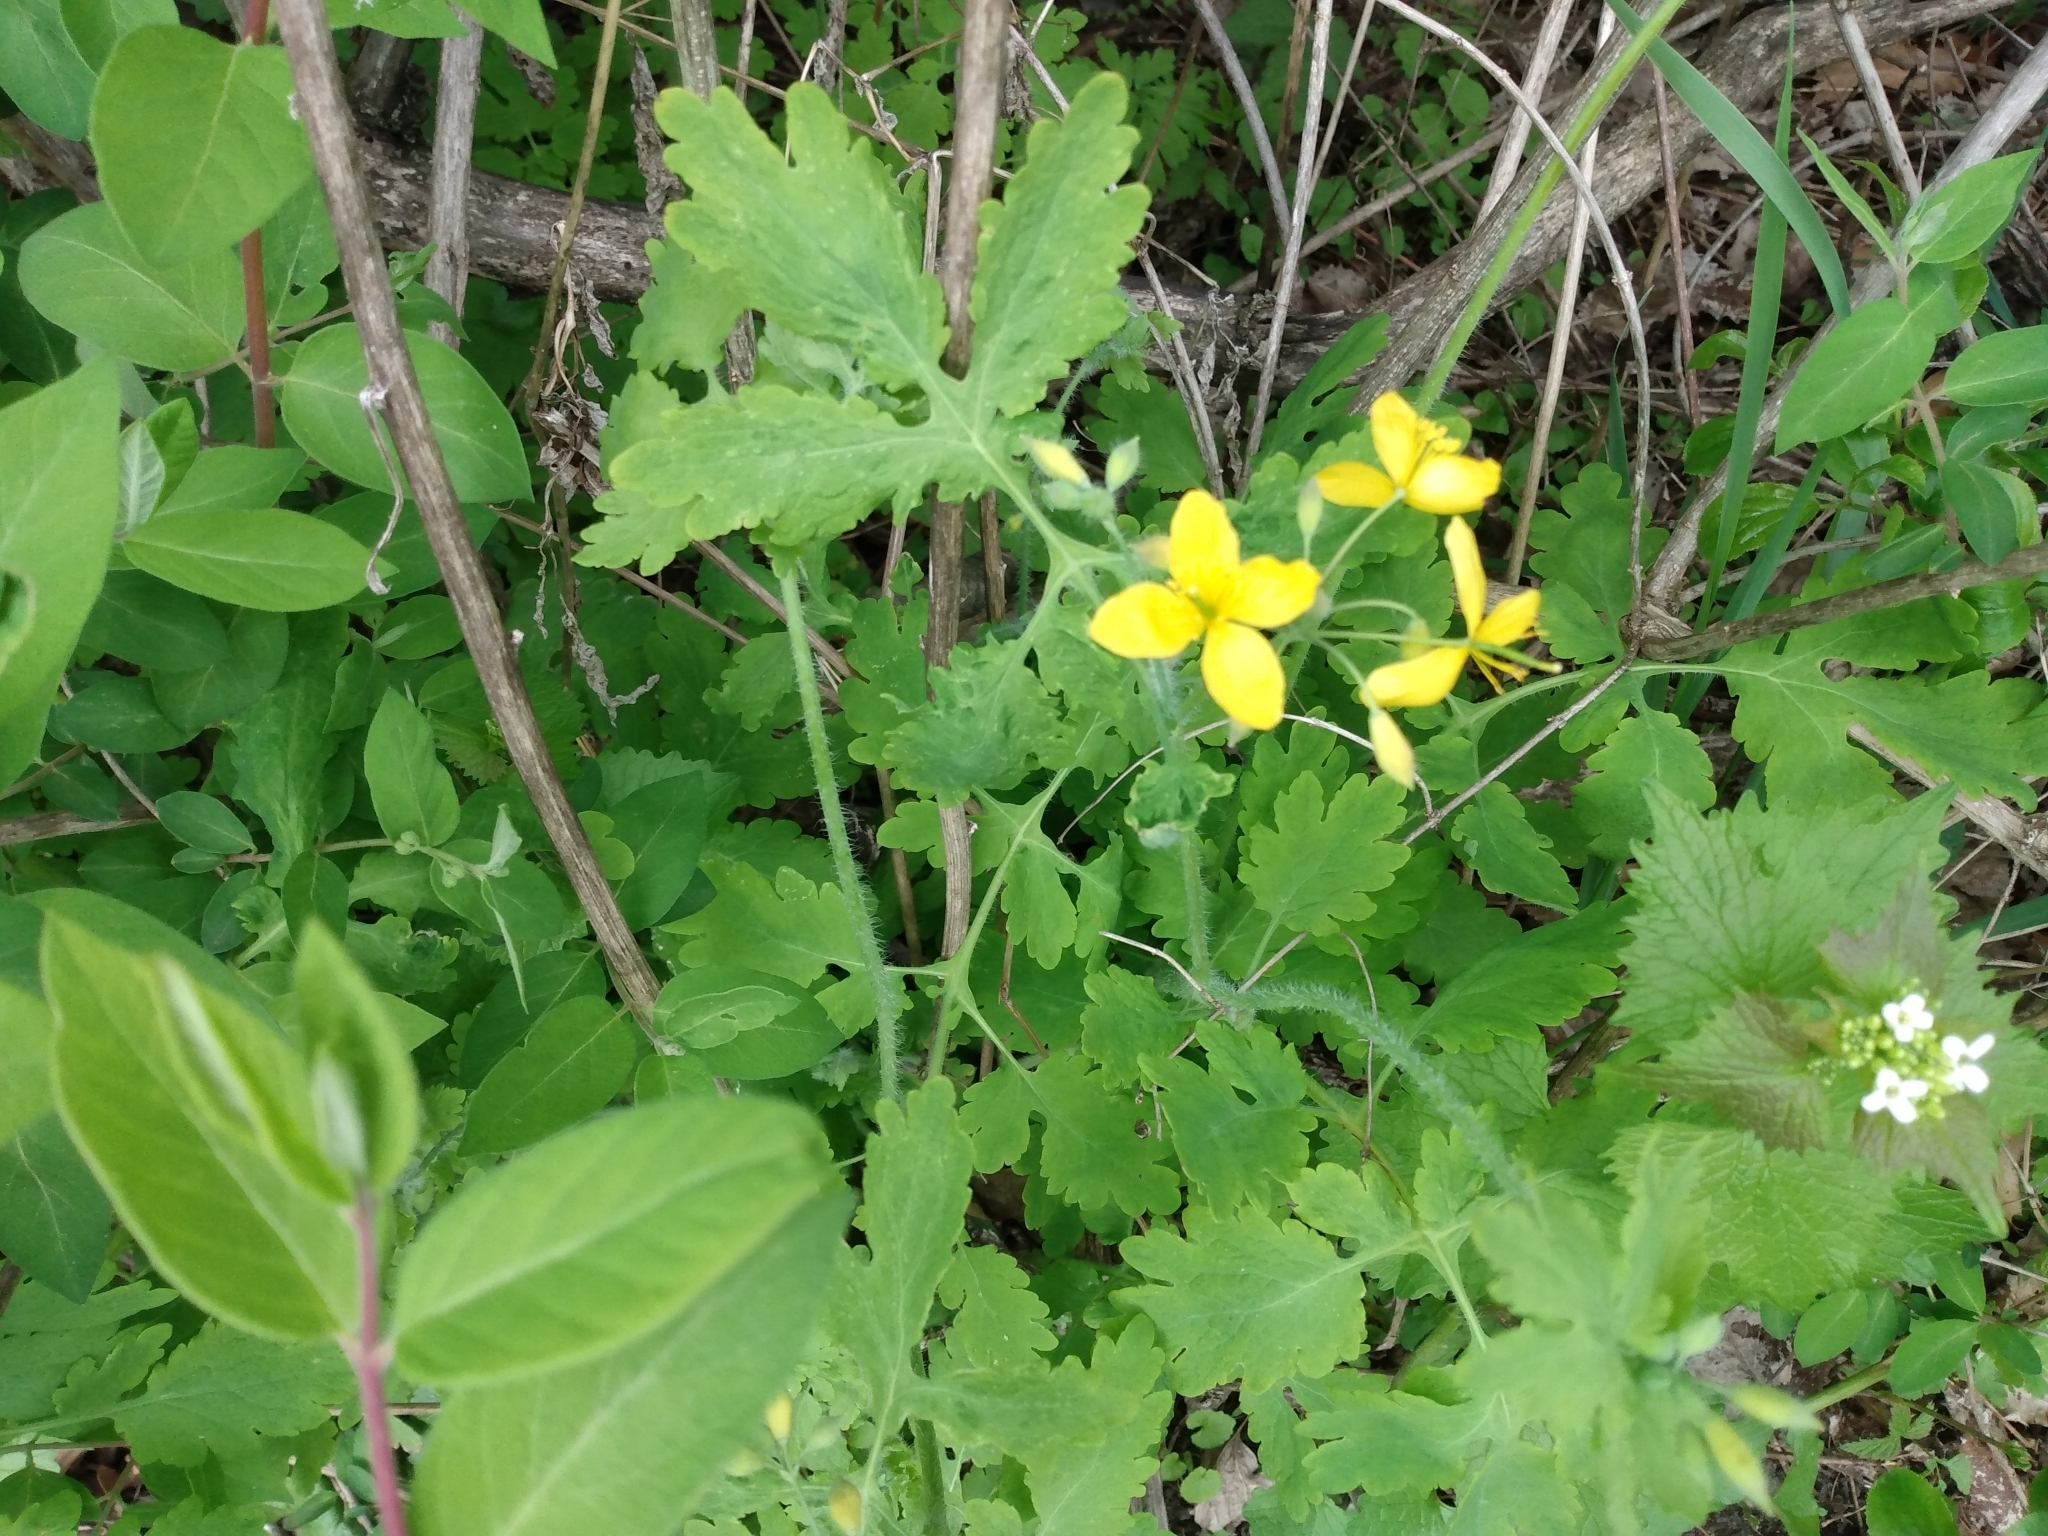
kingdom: Plantae
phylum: Tracheophyta
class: Magnoliopsida
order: Ranunculales
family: Papaveraceae
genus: Chelidonium
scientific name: Chelidonium majus
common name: Greater celandine
